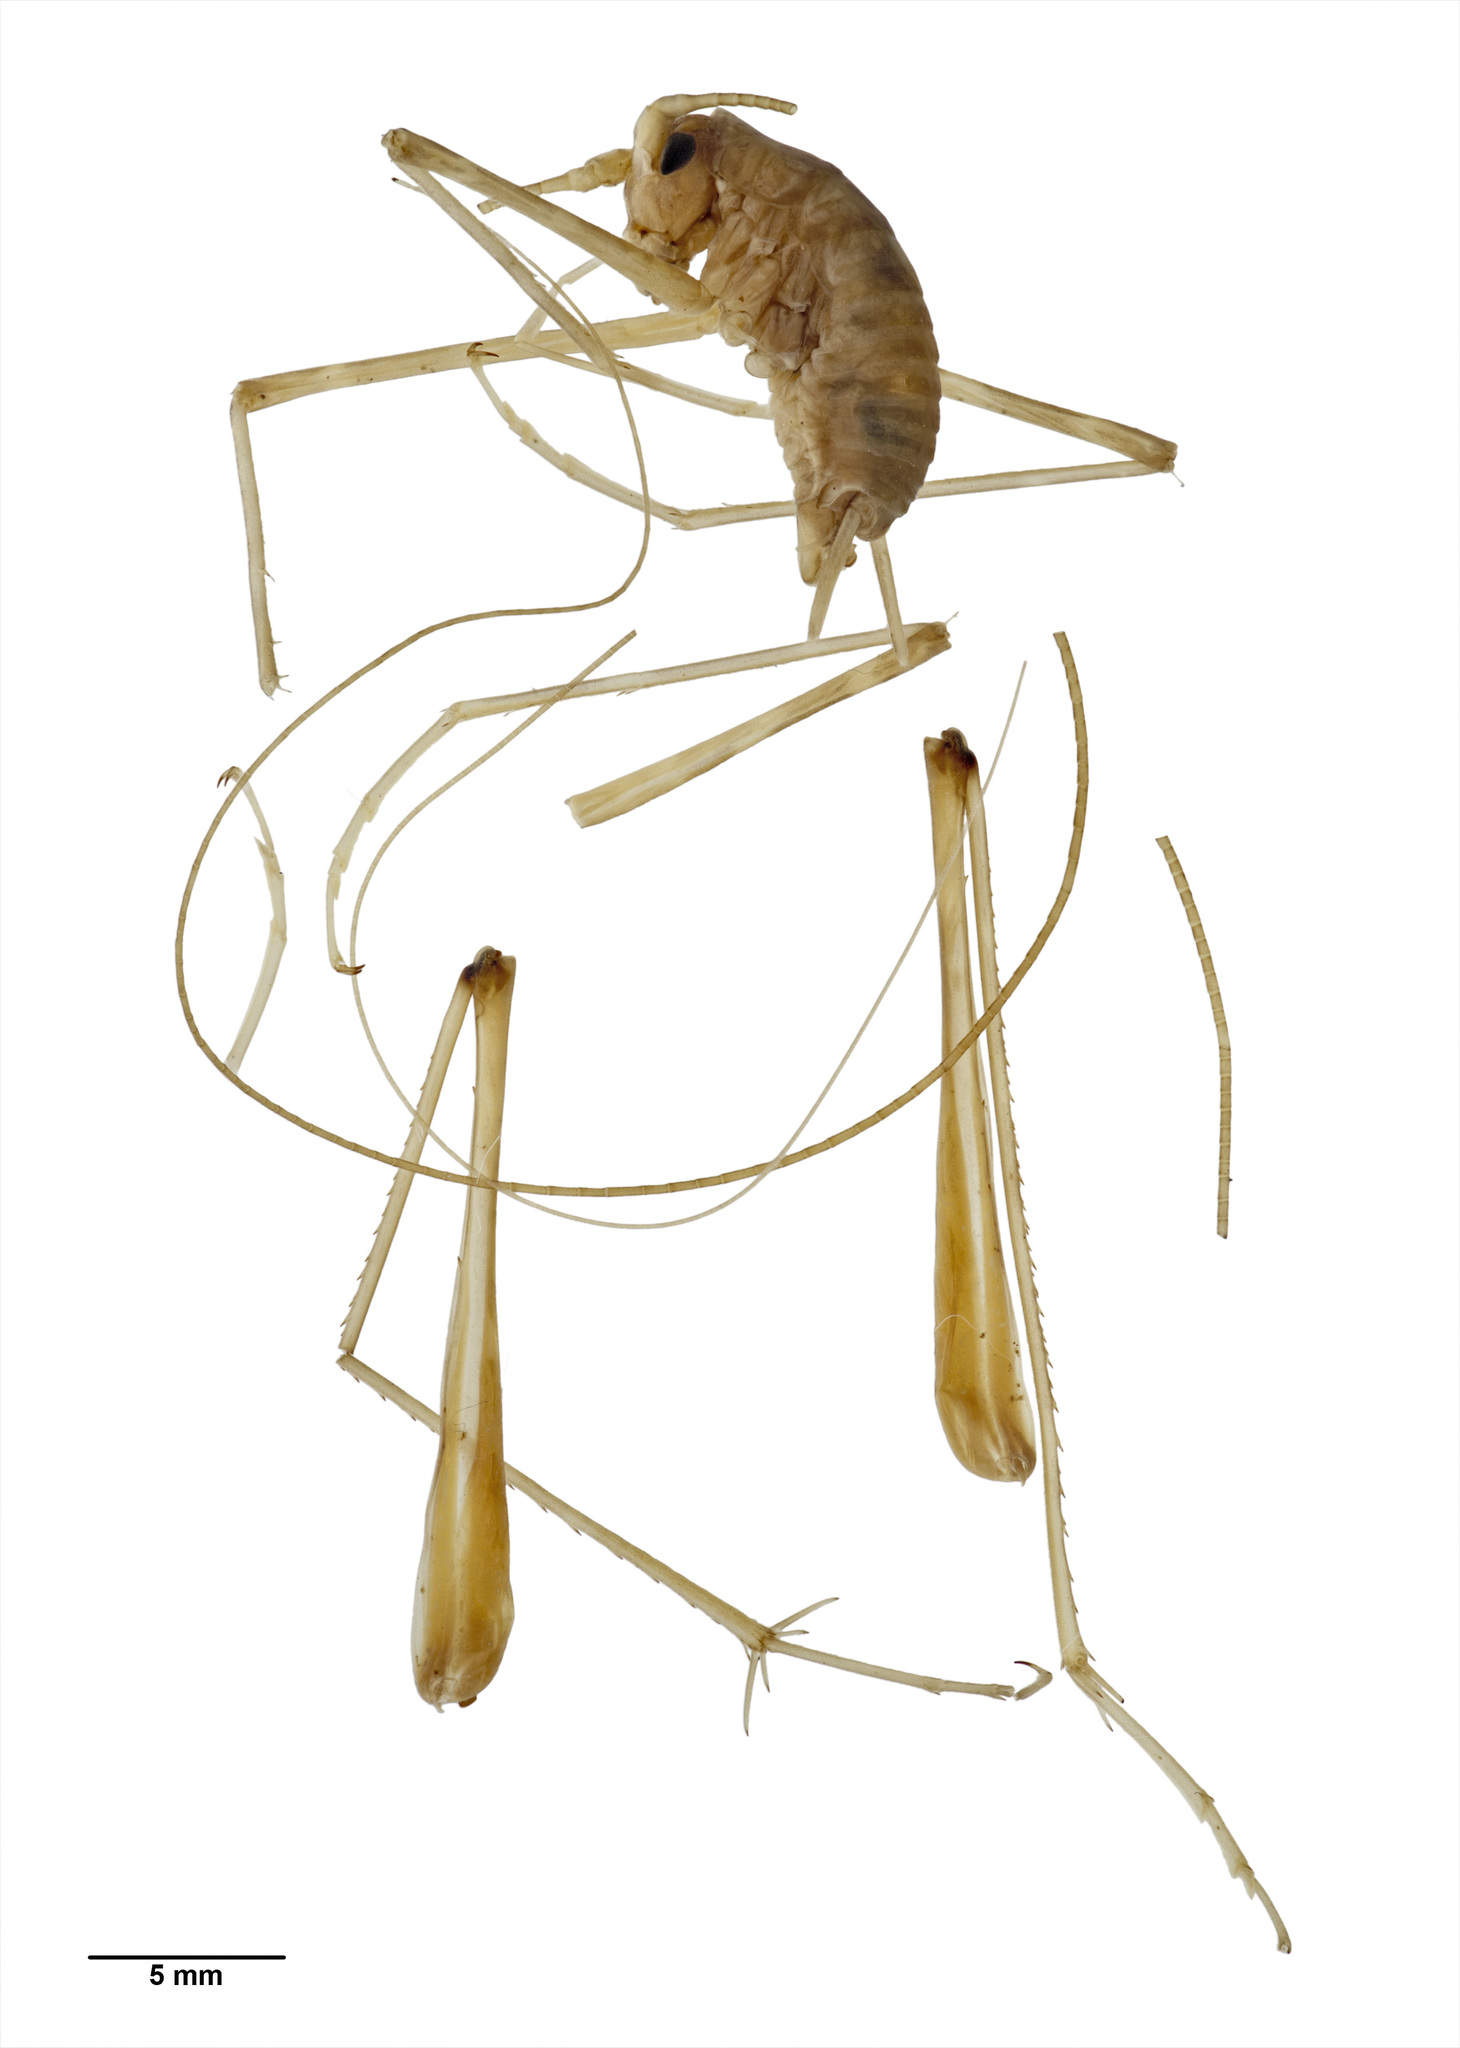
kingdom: Animalia
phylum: Arthropoda
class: Insecta
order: Orthoptera
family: Rhaphidophoridae
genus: Pallidoplectron
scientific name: Pallidoplectron turneri
